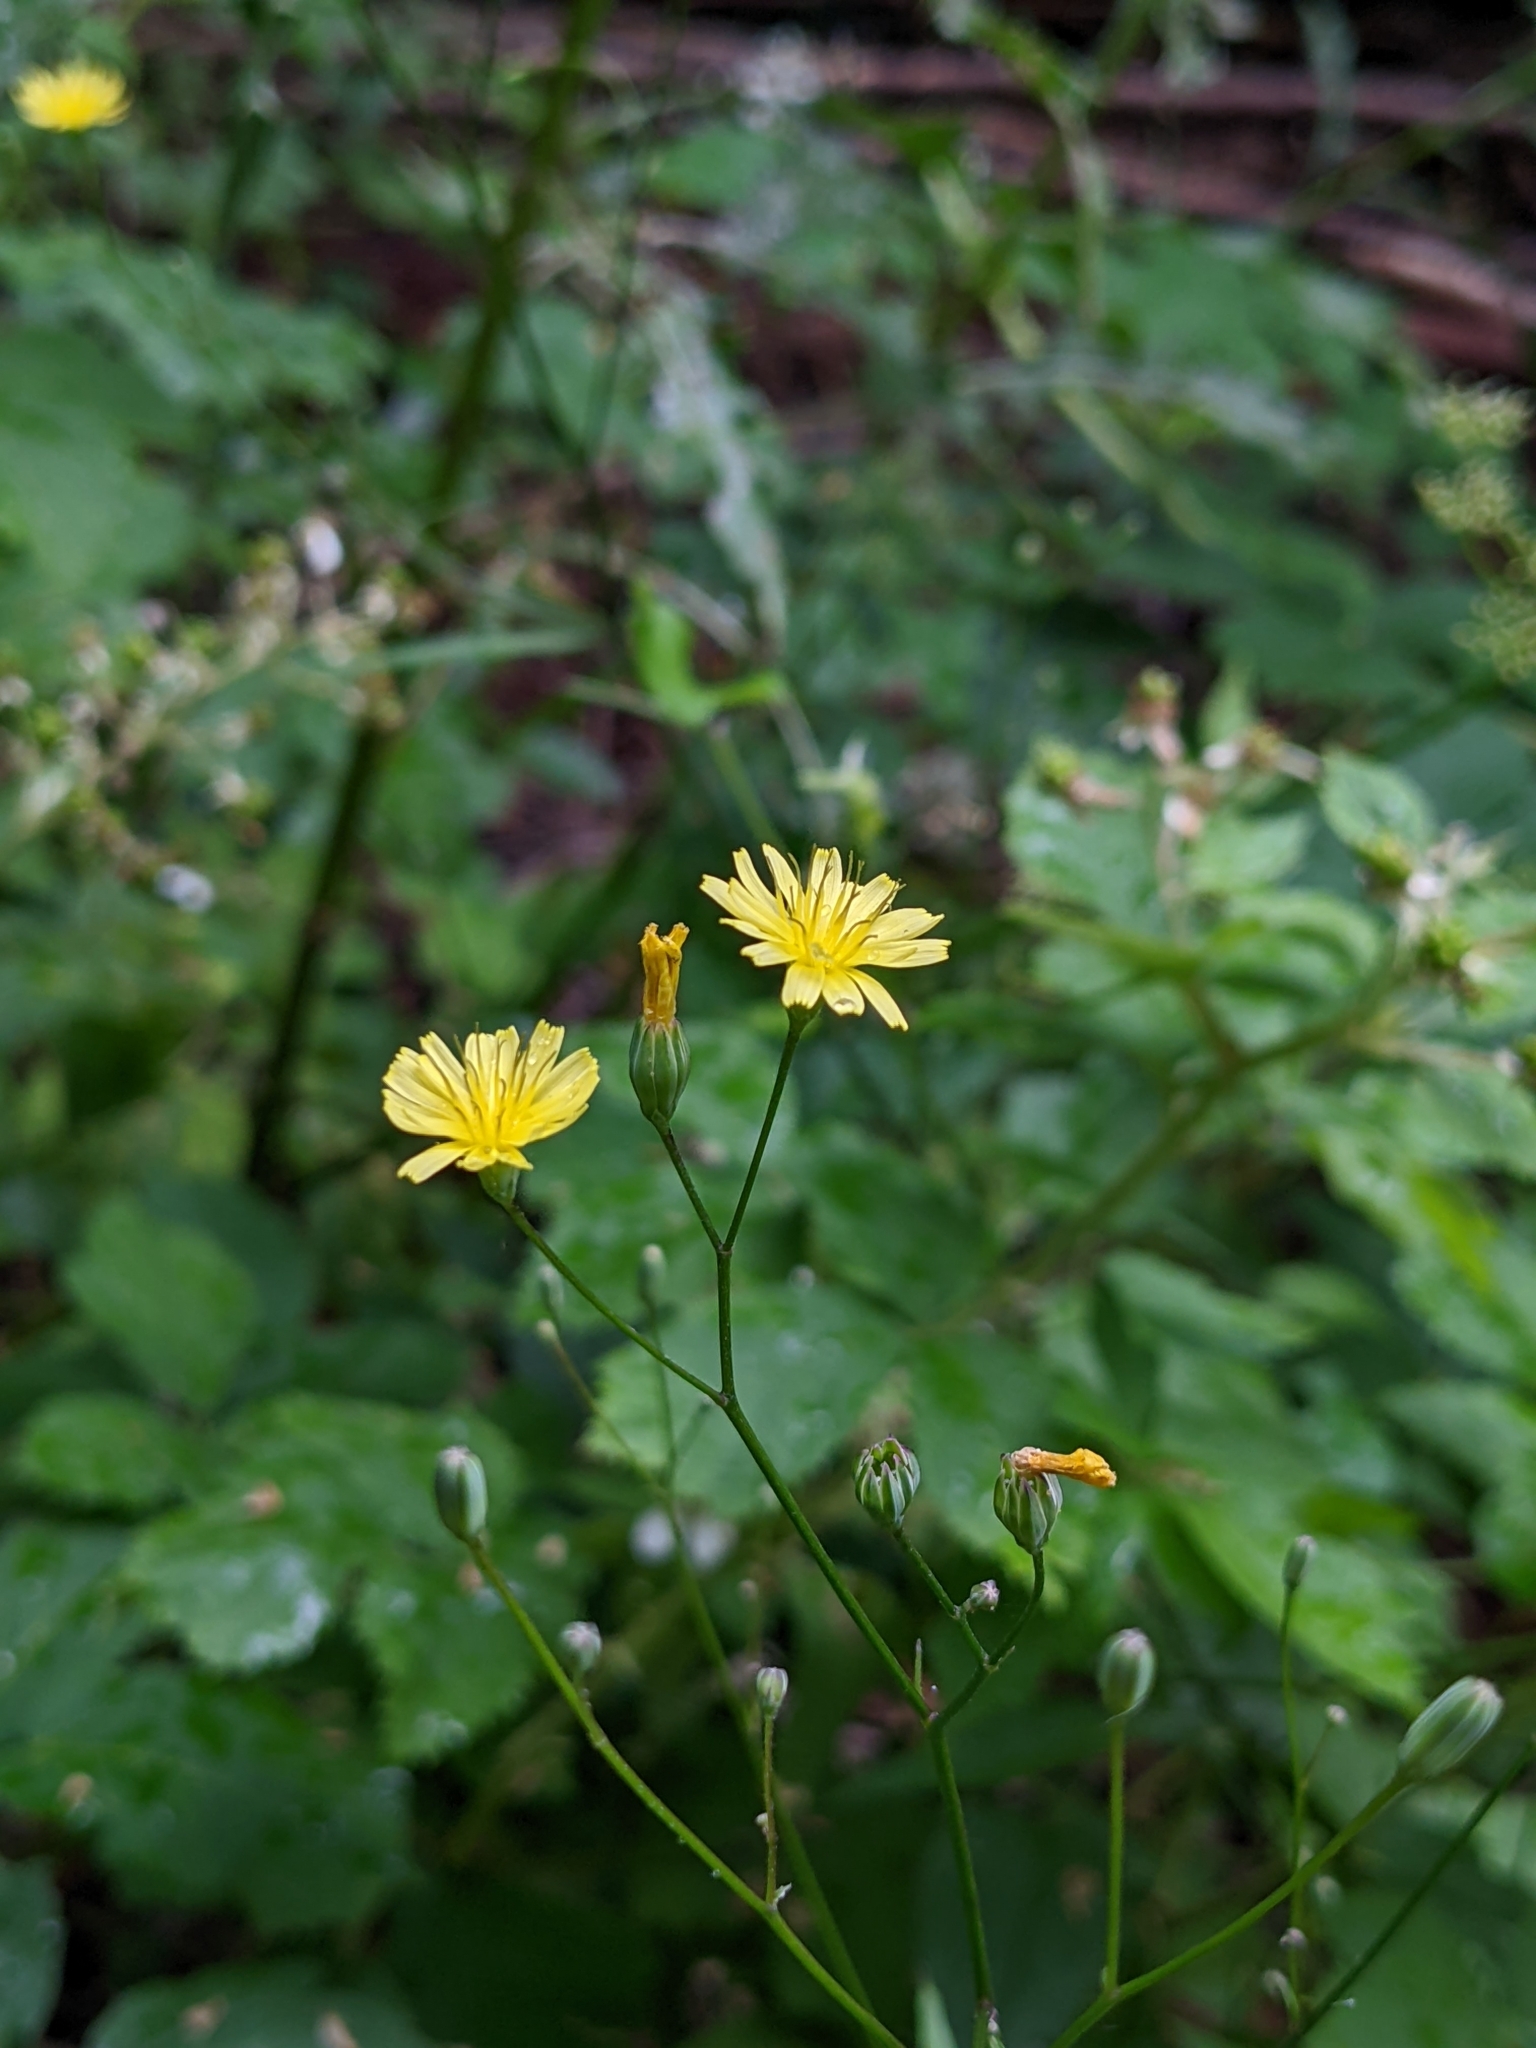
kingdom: Plantae
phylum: Tracheophyta
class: Magnoliopsida
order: Asterales
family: Asteraceae
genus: Lapsana
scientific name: Lapsana communis
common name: Nipplewort
